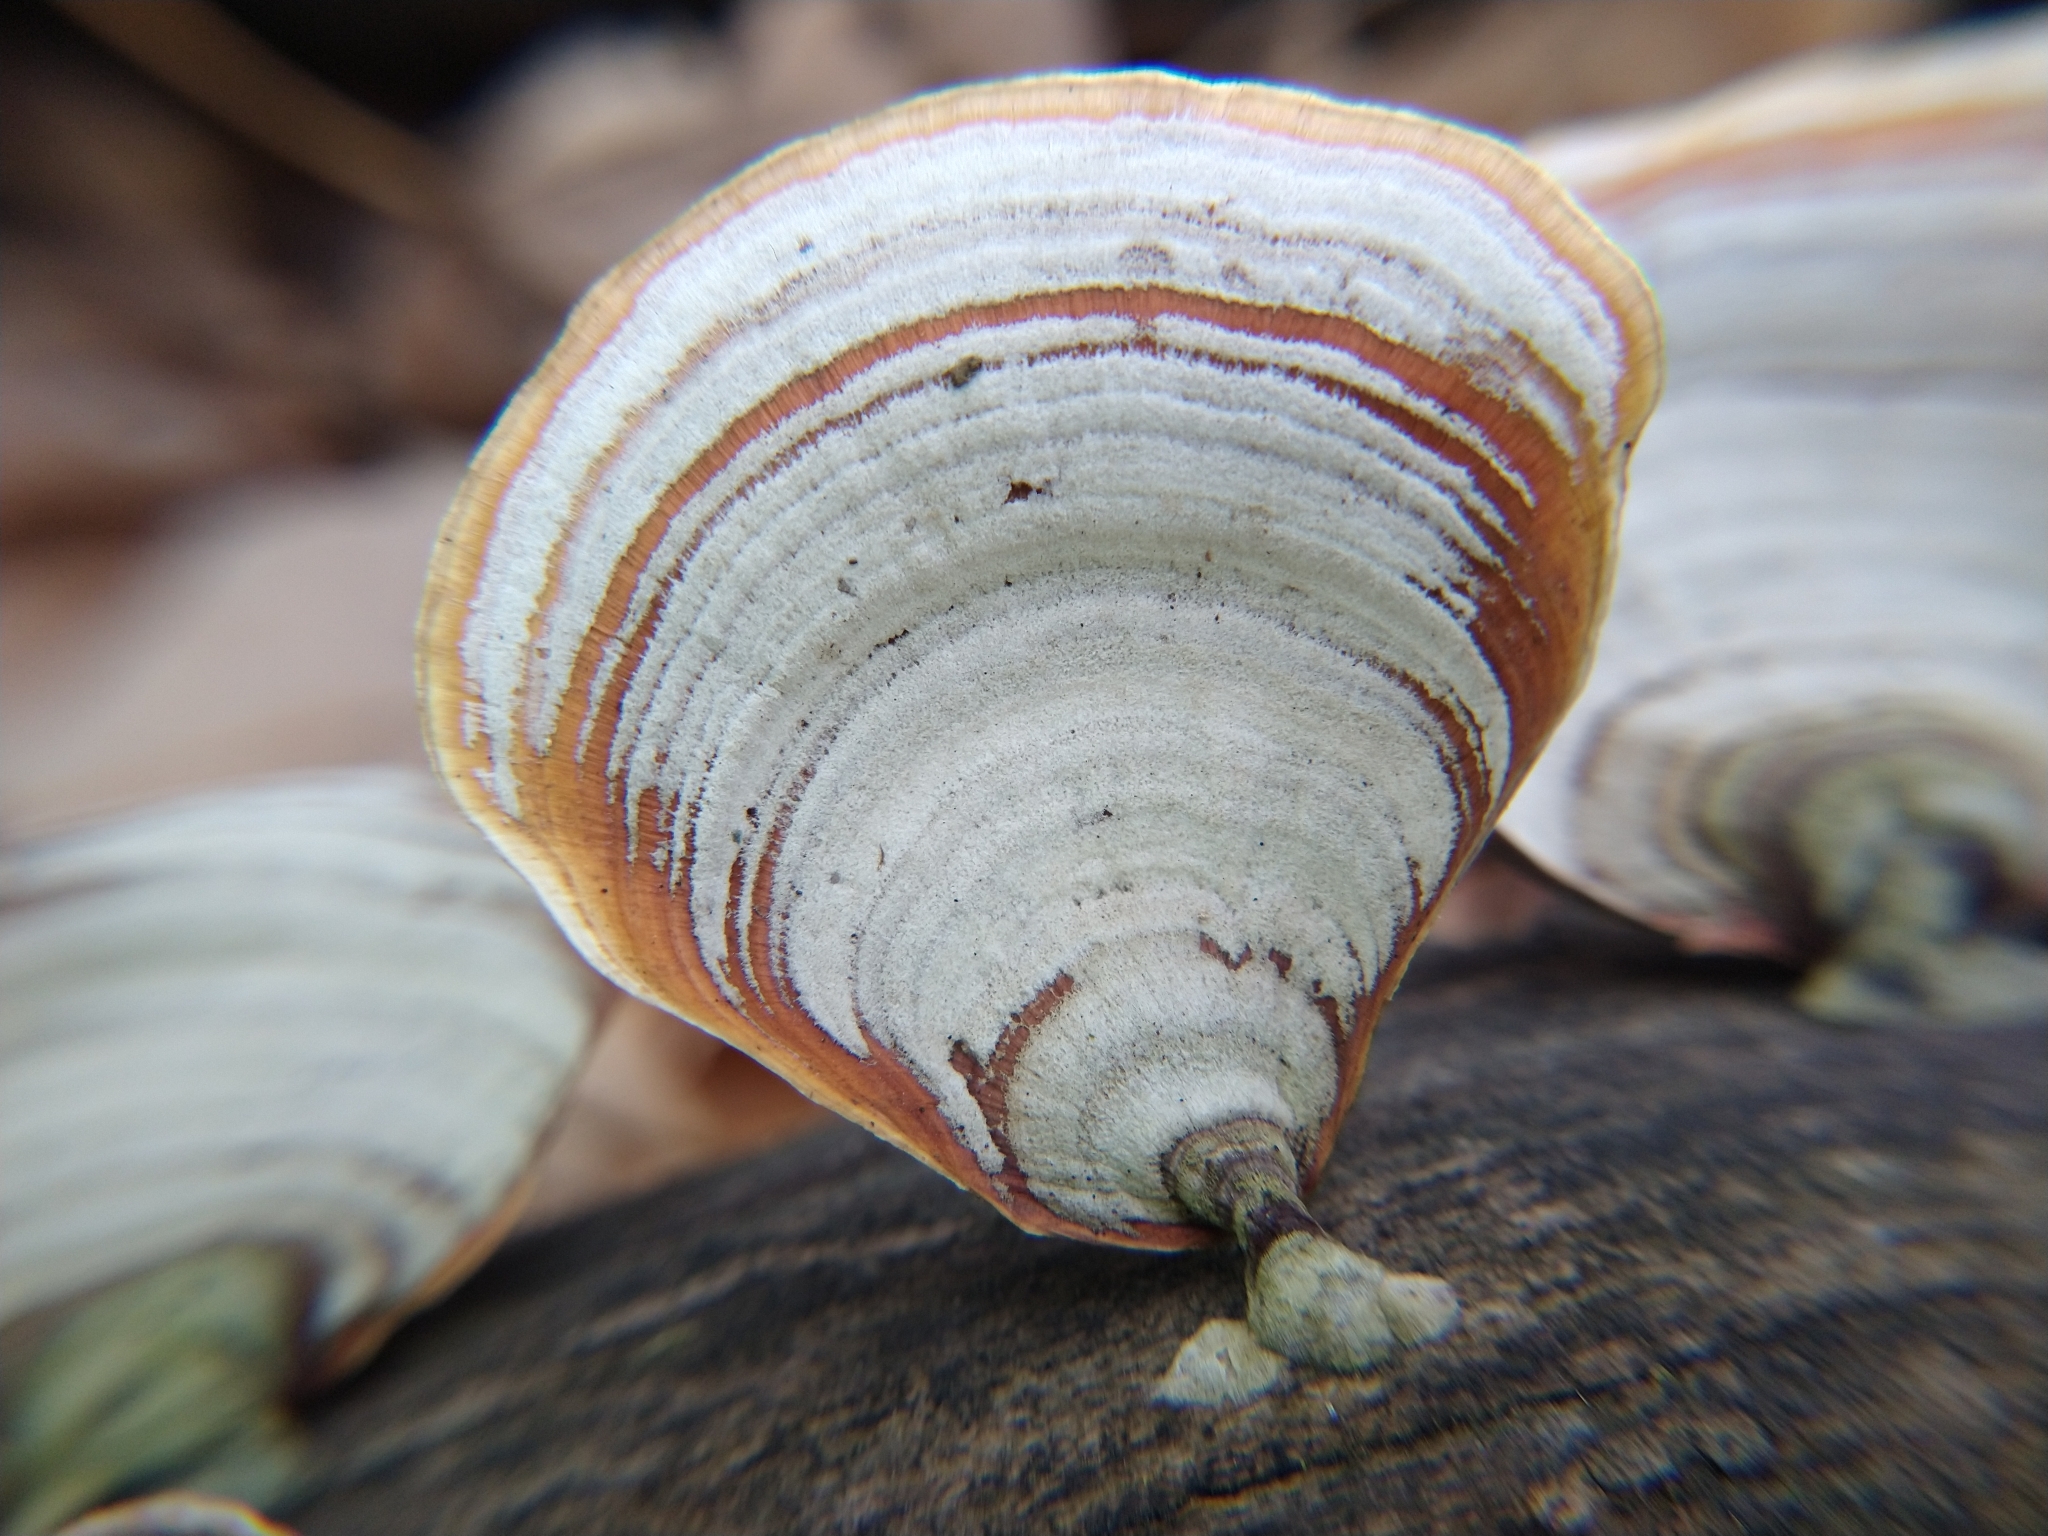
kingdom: Fungi
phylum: Basidiomycota
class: Agaricomycetes
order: Russulales
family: Stereaceae
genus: Stereum
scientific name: Stereum lobatum
